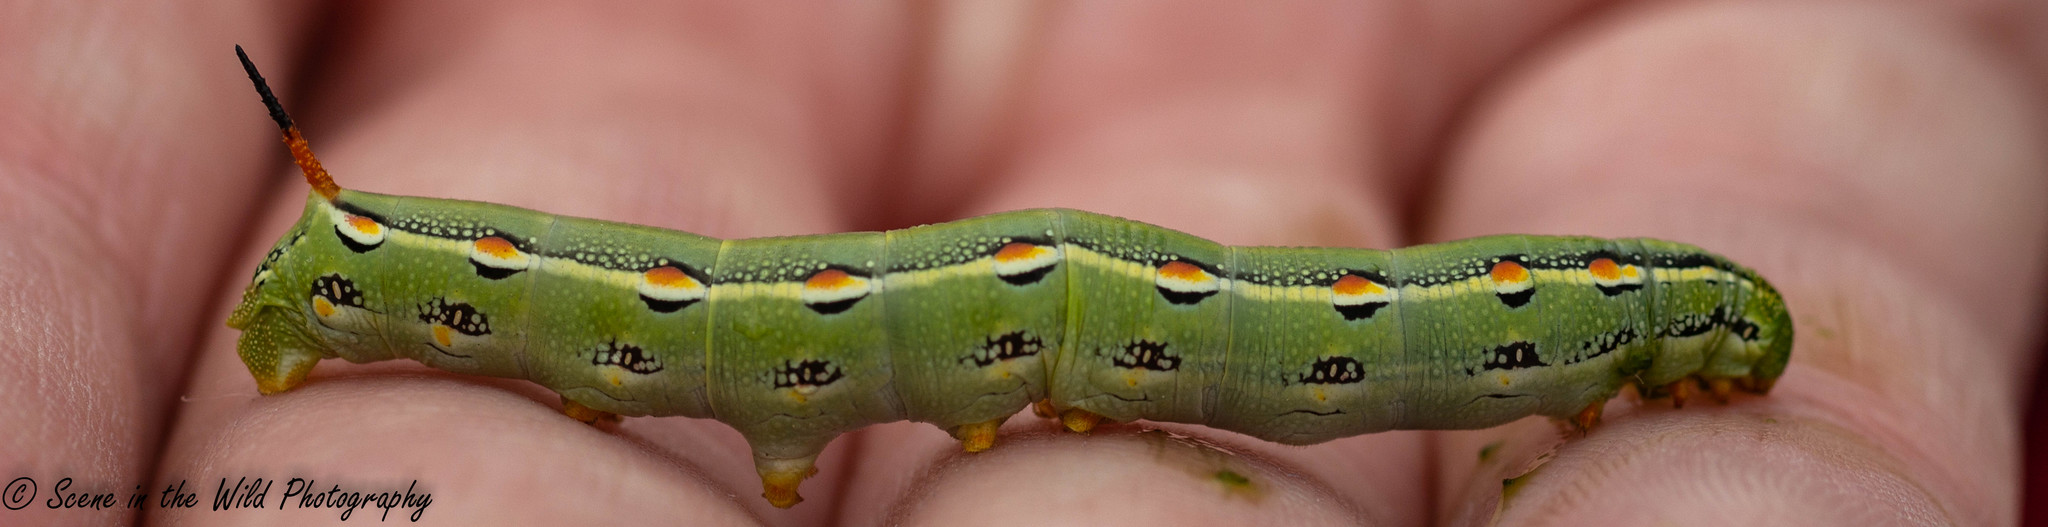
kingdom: Animalia
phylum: Arthropoda
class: Insecta
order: Lepidoptera
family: Sphingidae
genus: Hyles
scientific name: Hyles lineata
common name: White-lined sphinx
